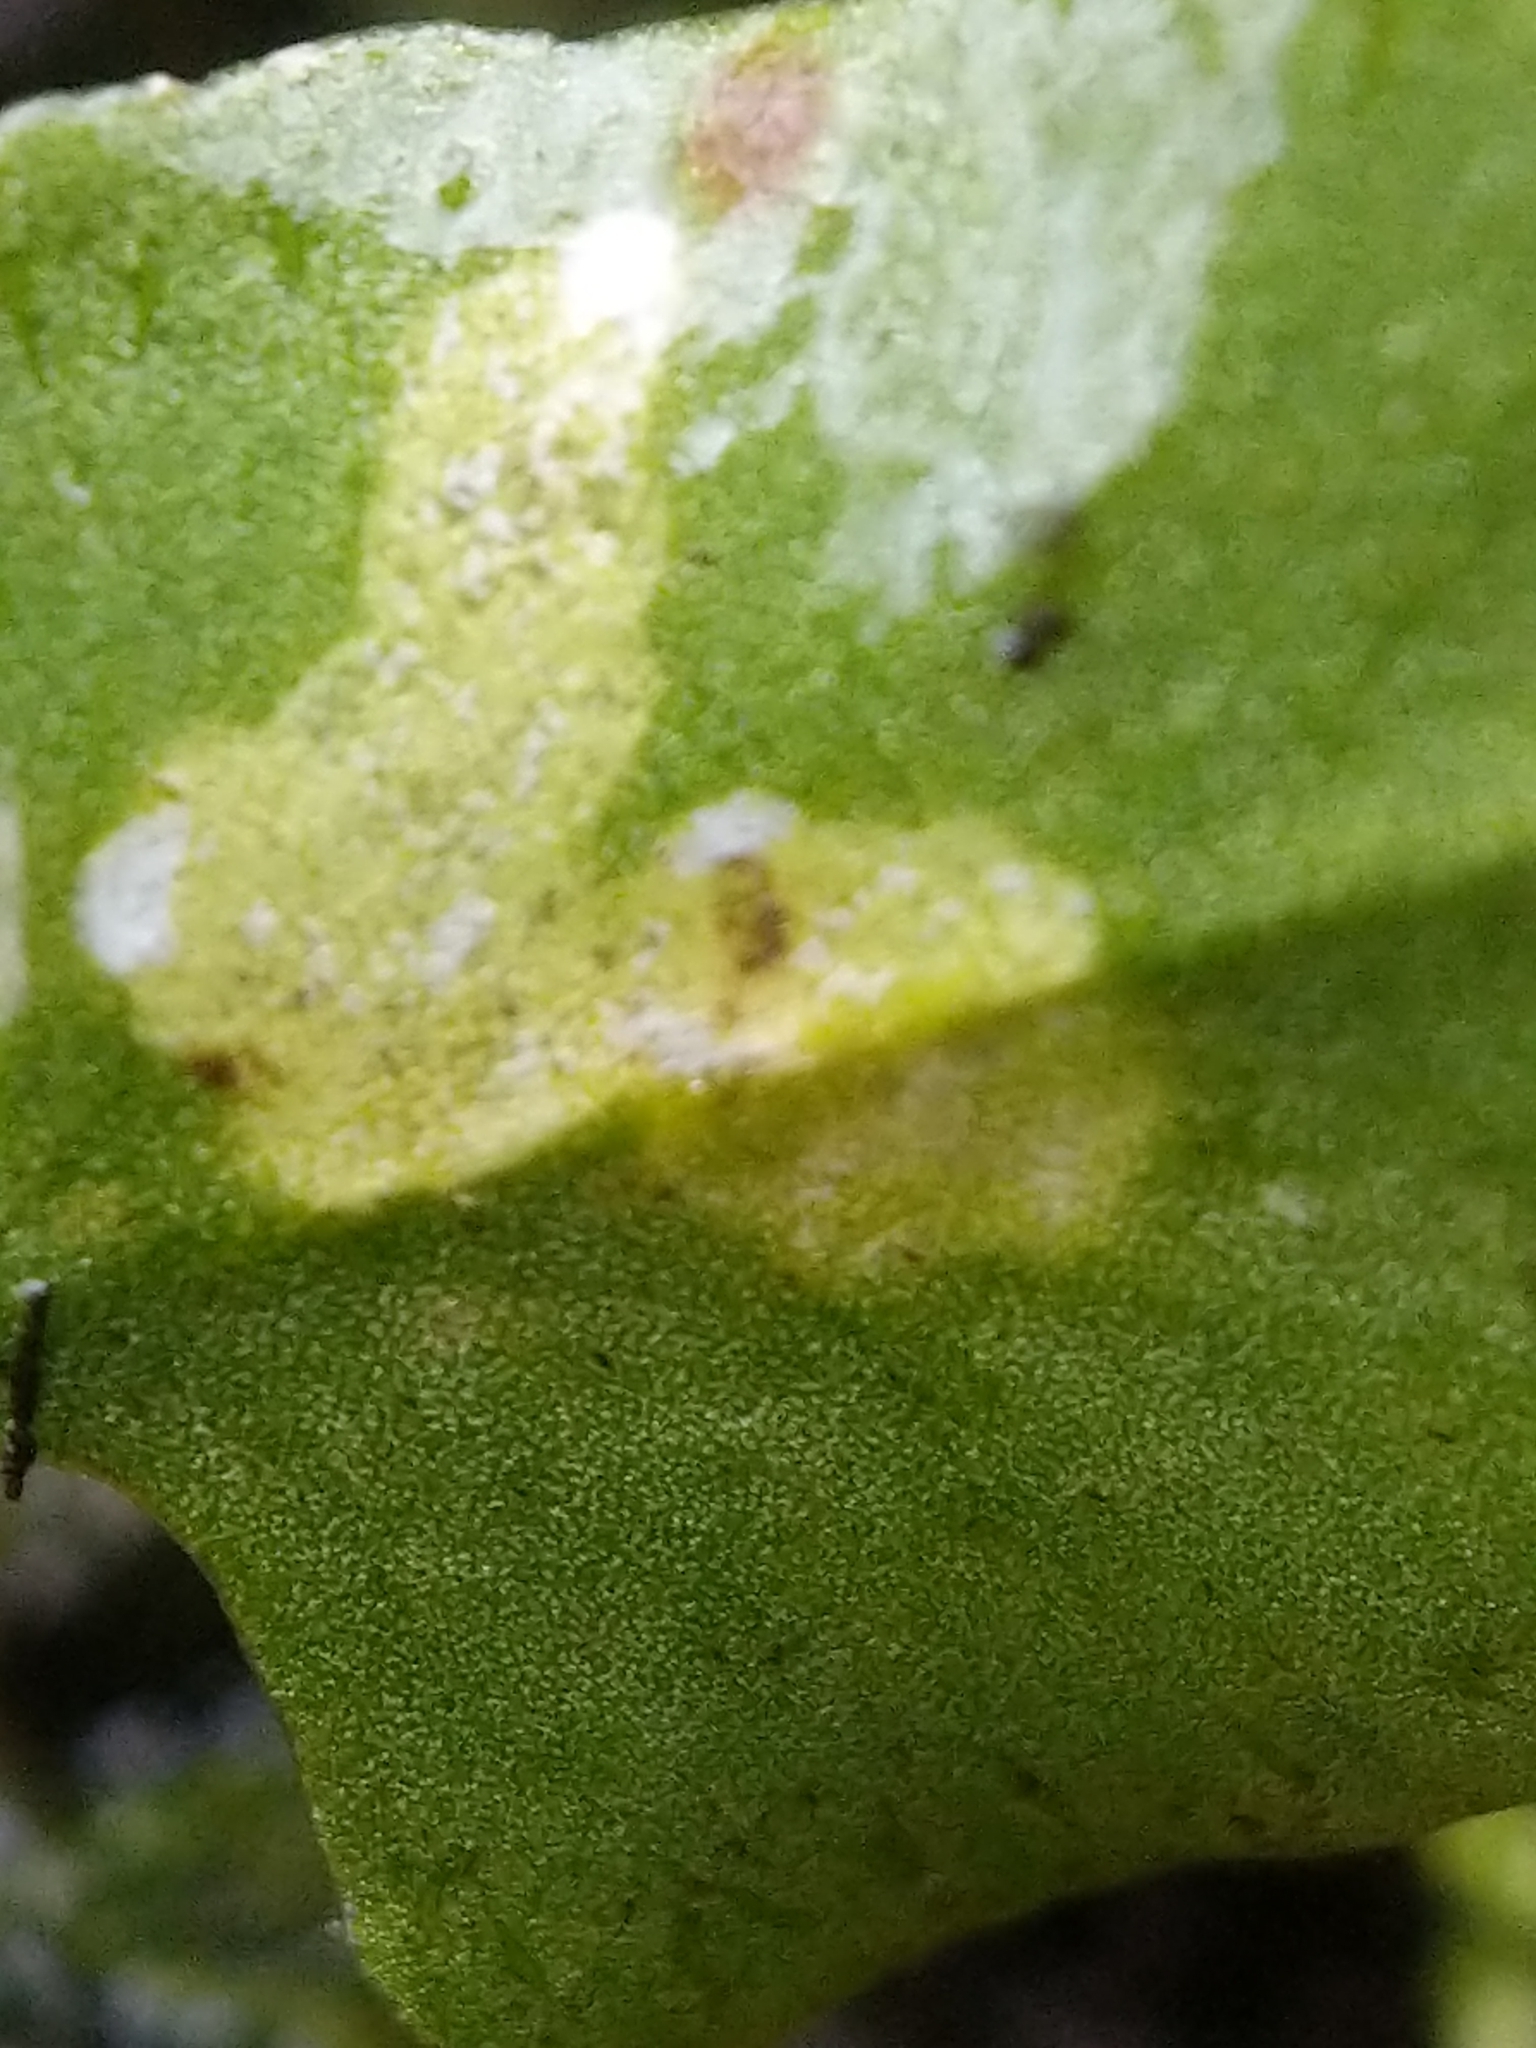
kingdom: Animalia
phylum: Arthropoda
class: Insecta
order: Diptera
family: Agromyzidae
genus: Phytoliriomyza
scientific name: Phytoliriomyza felti
